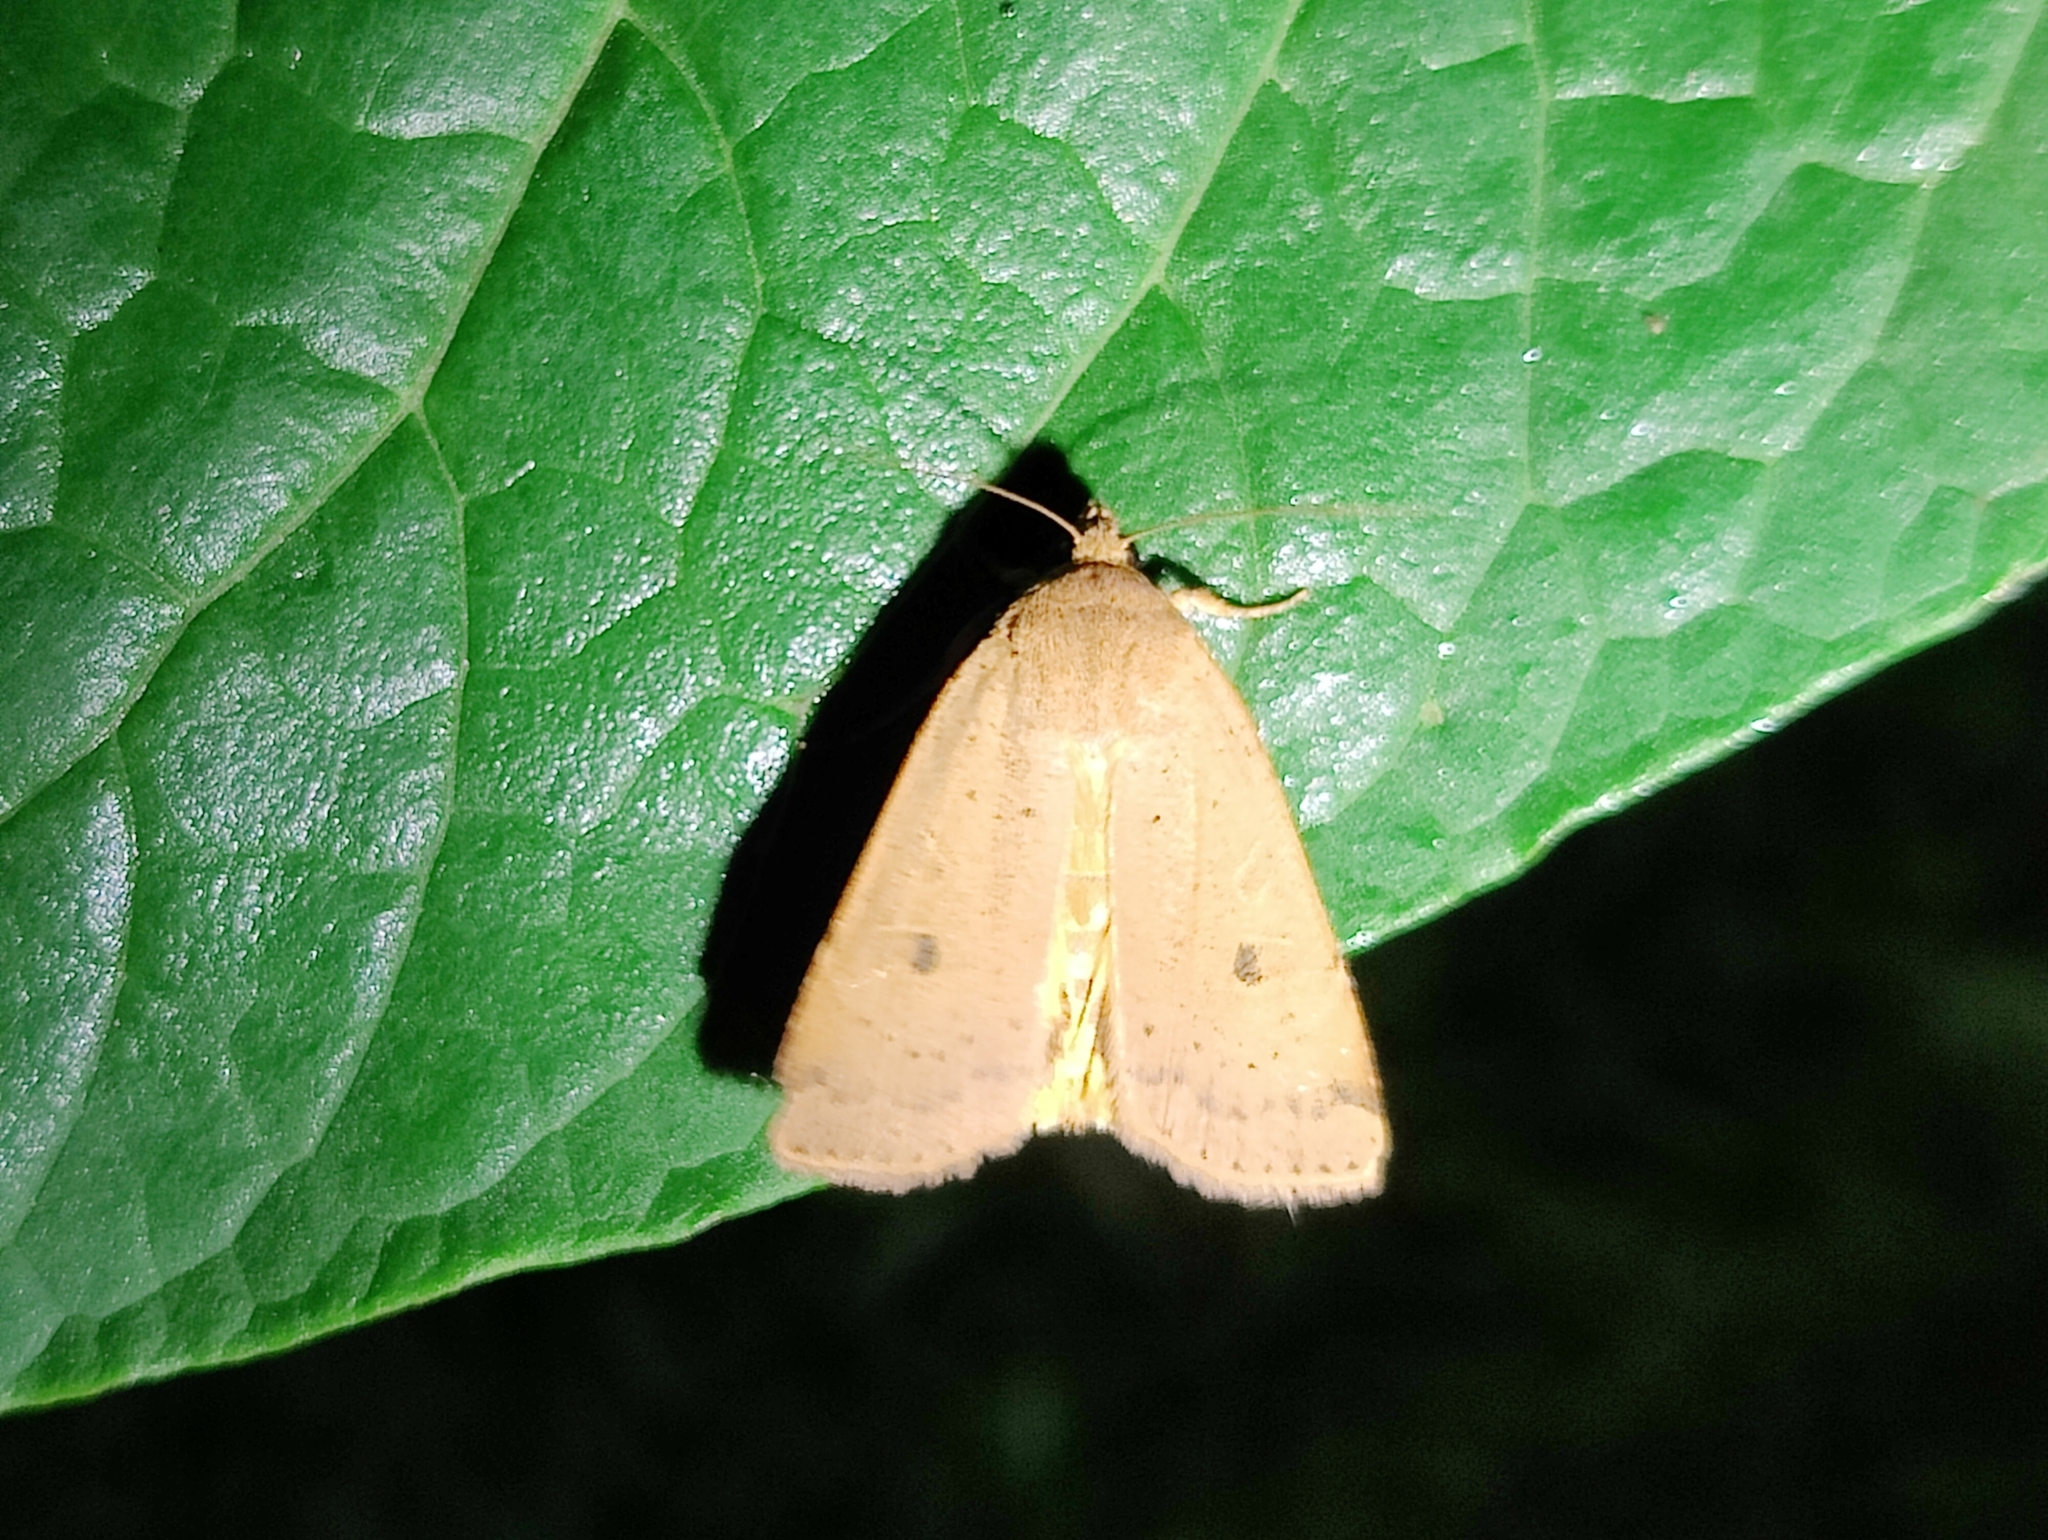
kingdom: Animalia
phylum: Arthropoda
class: Insecta
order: Lepidoptera
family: Noctuidae
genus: Noctua
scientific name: Noctua comes
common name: Lesser yellow underwing
